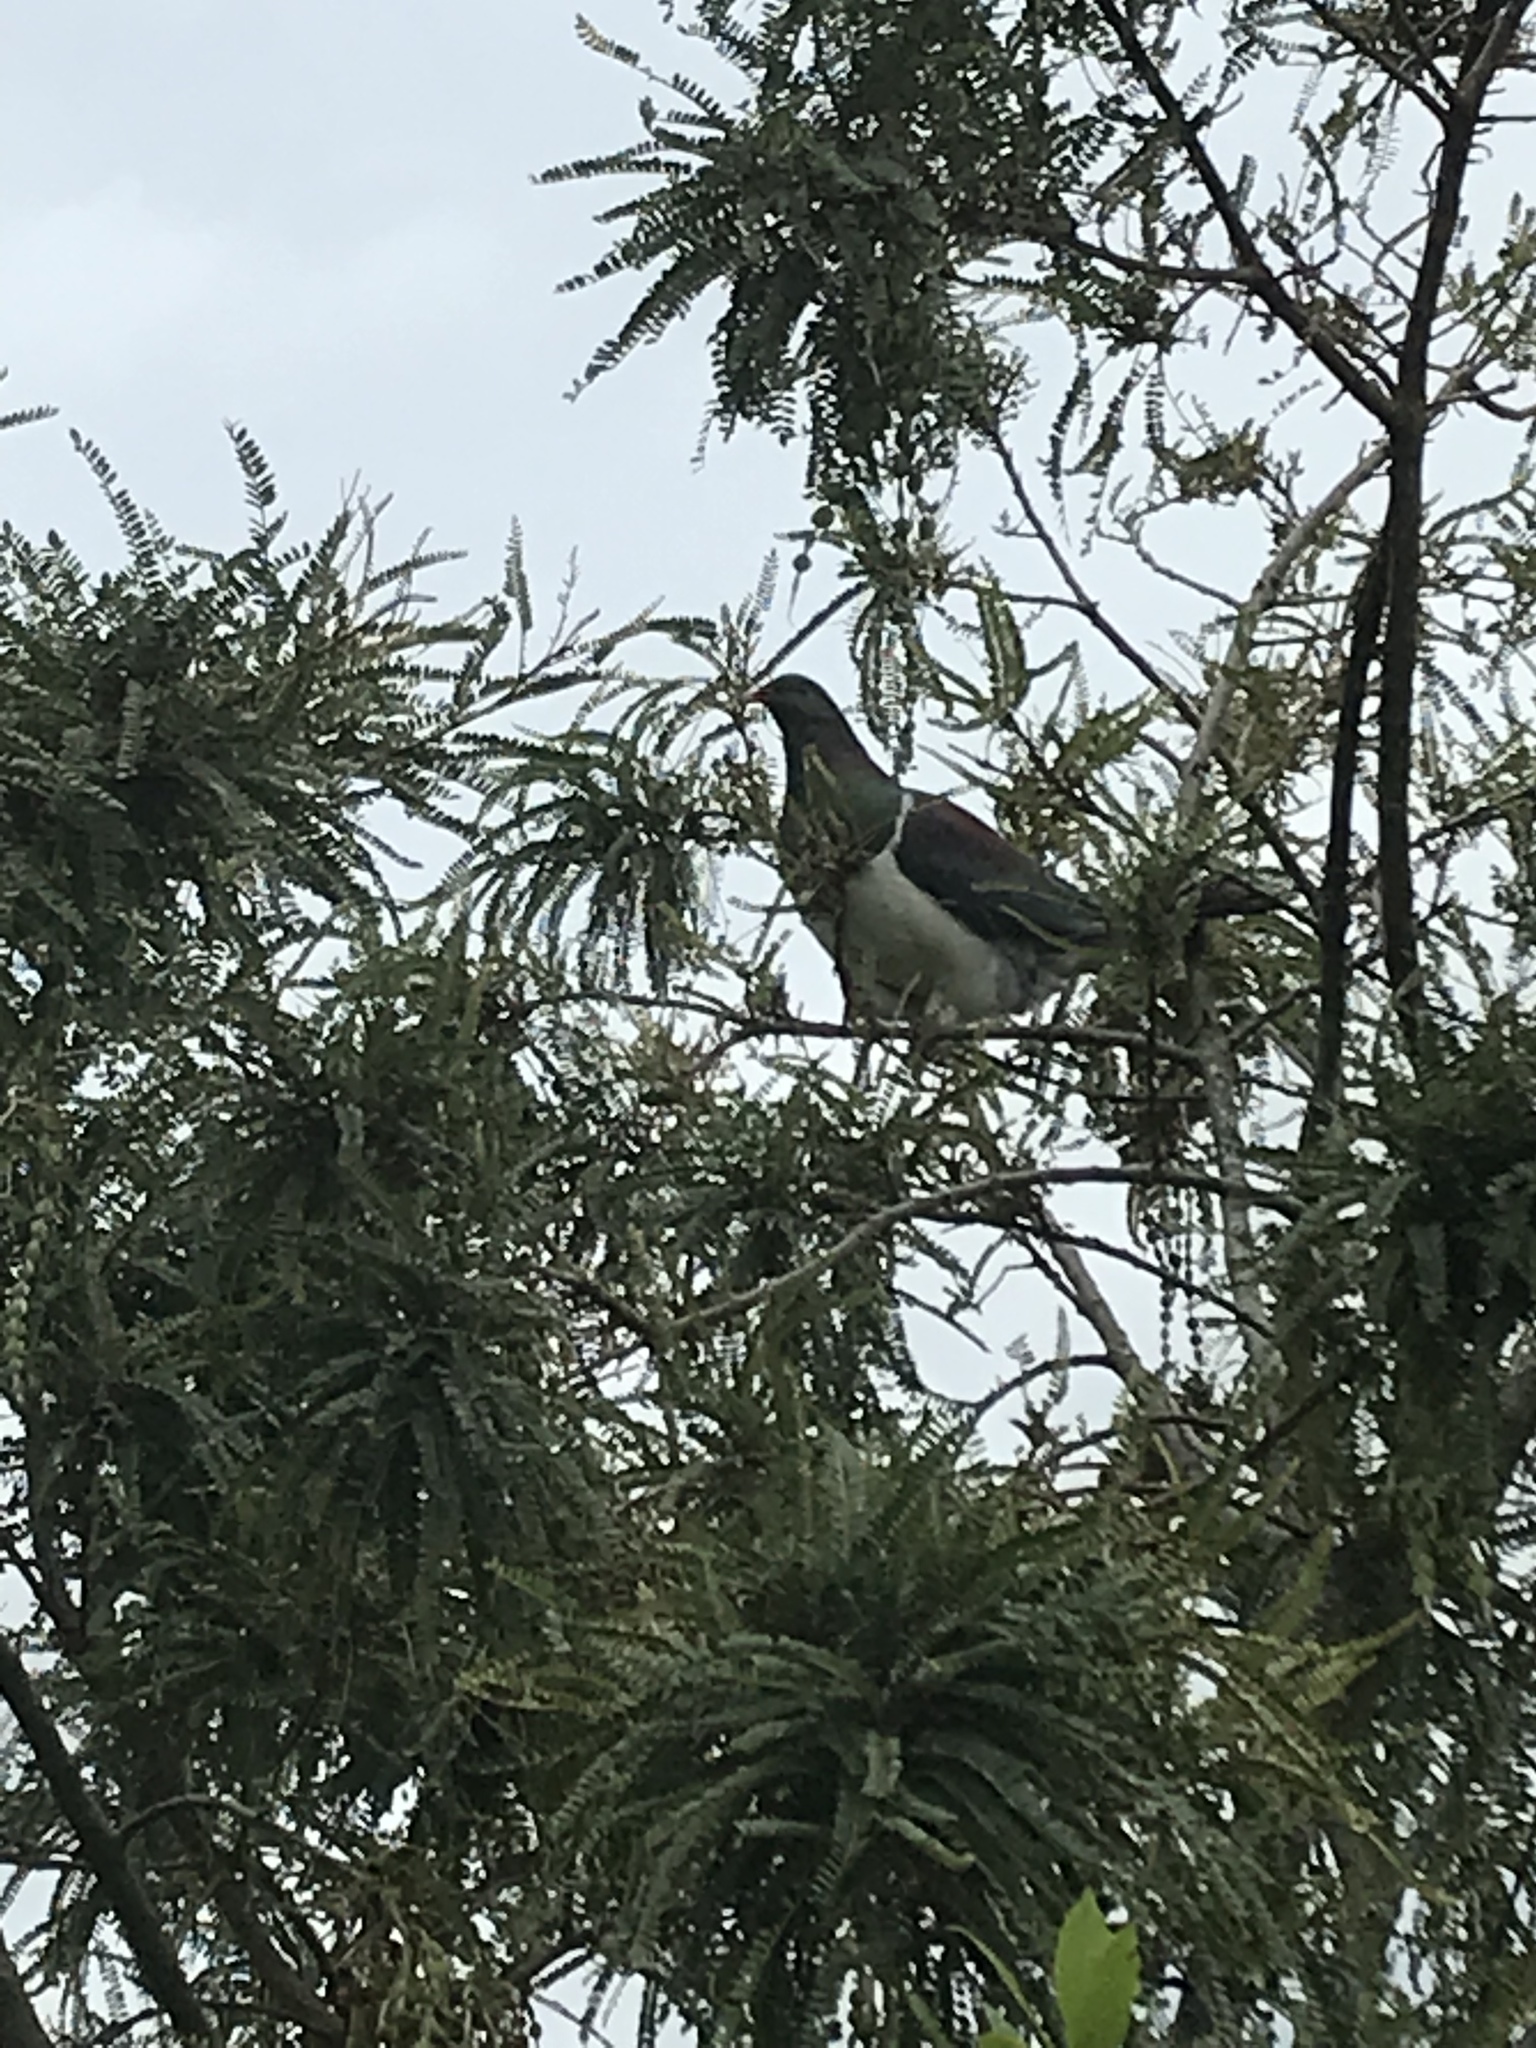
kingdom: Animalia
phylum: Chordata
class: Aves
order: Columbiformes
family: Columbidae
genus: Hemiphaga
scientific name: Hemiphaga novaeseelandiae
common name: New zealand pigeon
